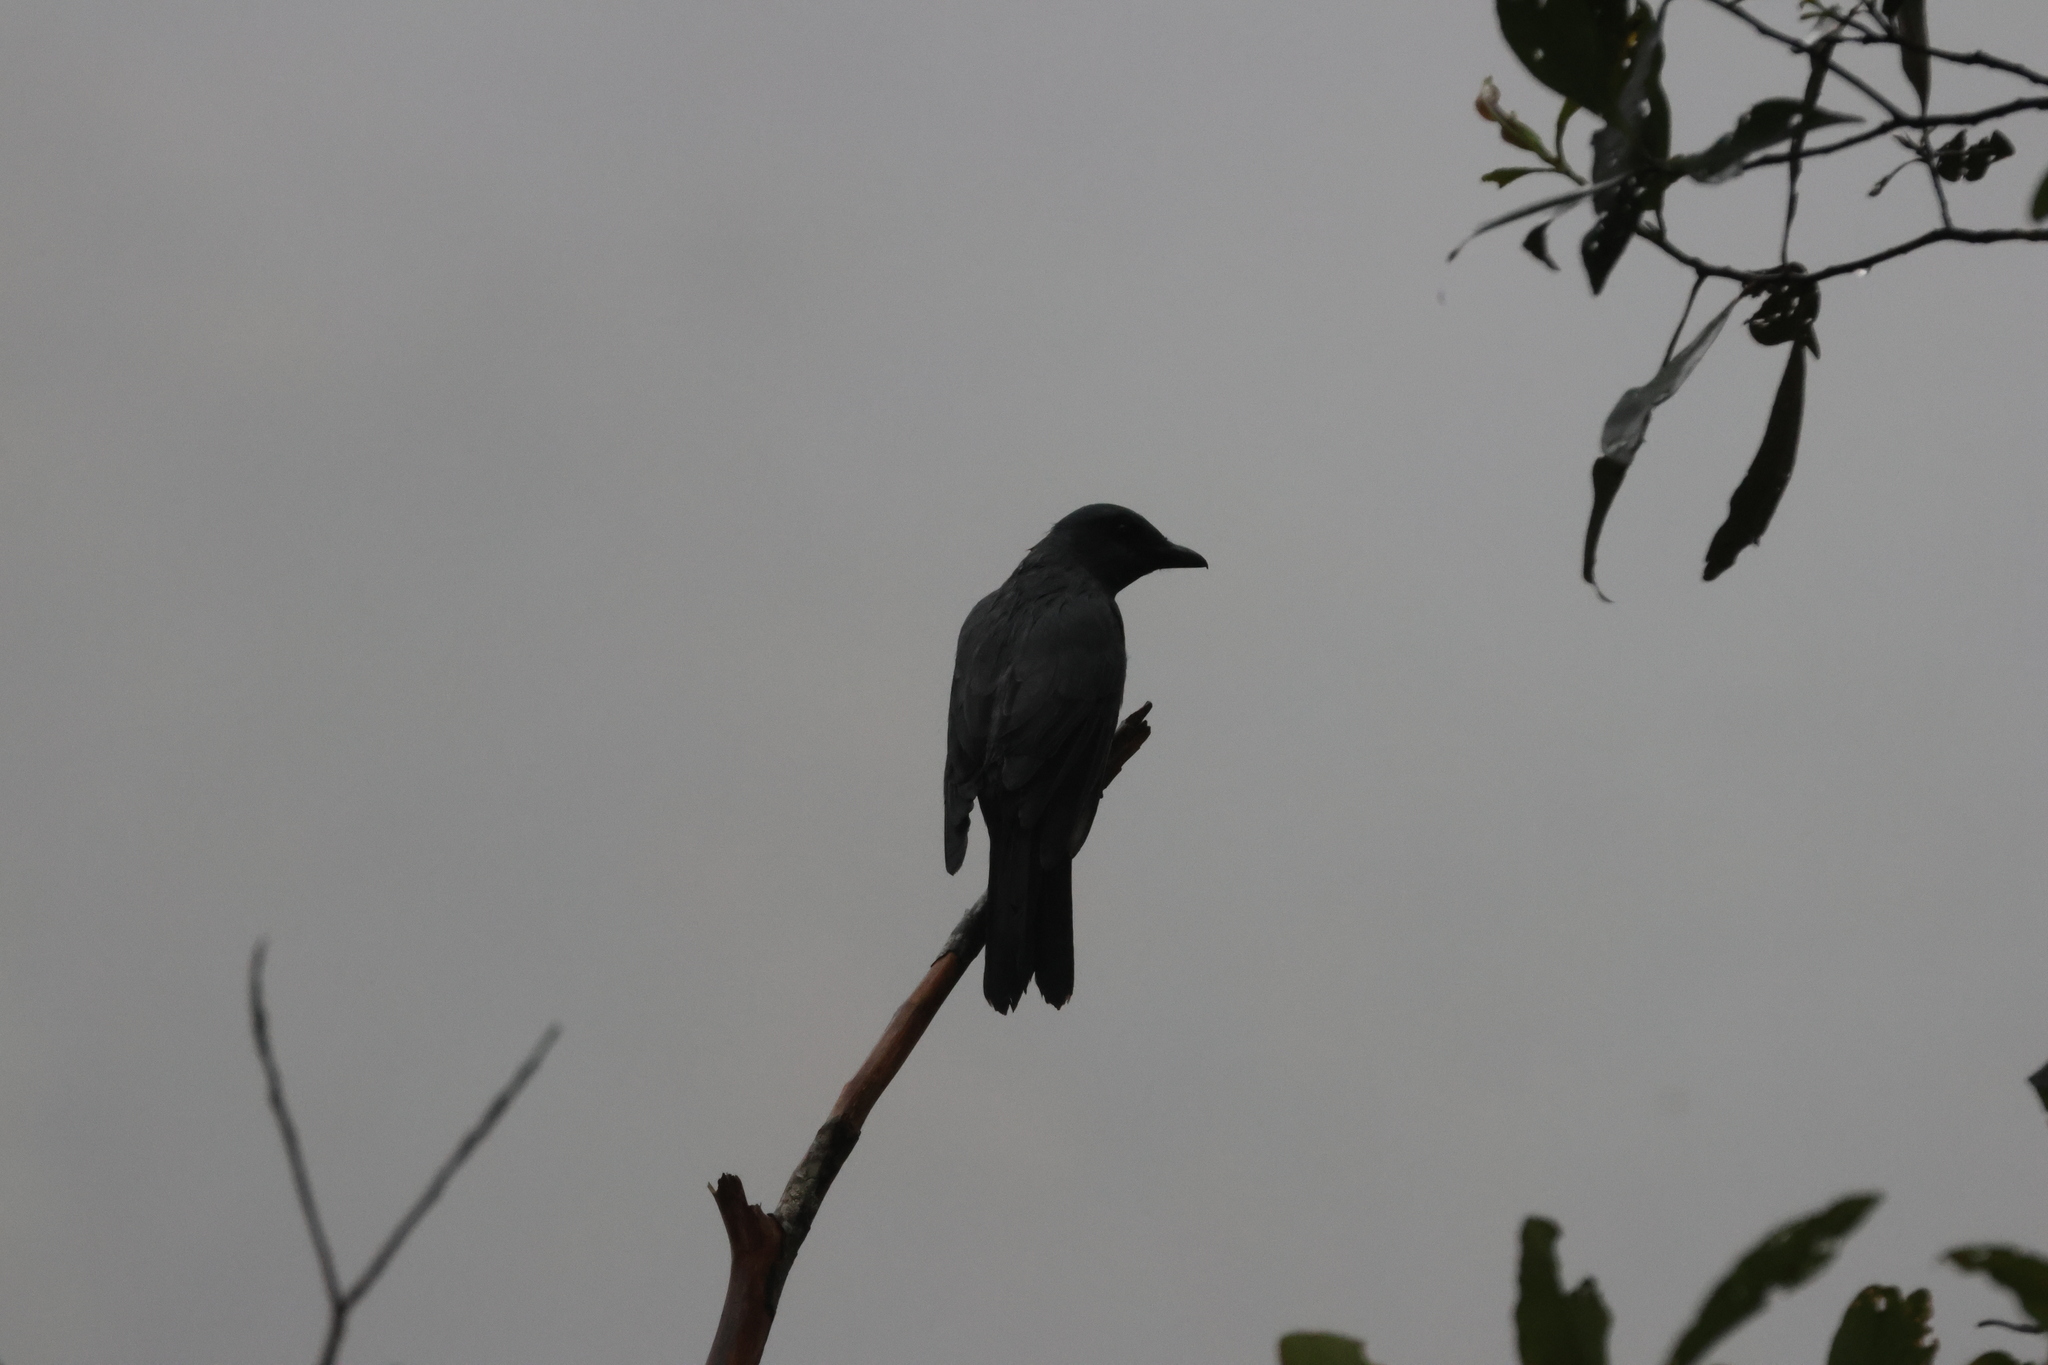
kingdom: Animalia
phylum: Chordata
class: Aves
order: Passeriformes
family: Campephagidae
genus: Coracina
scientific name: Coracina larvata
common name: Sunda cuckooshrike
